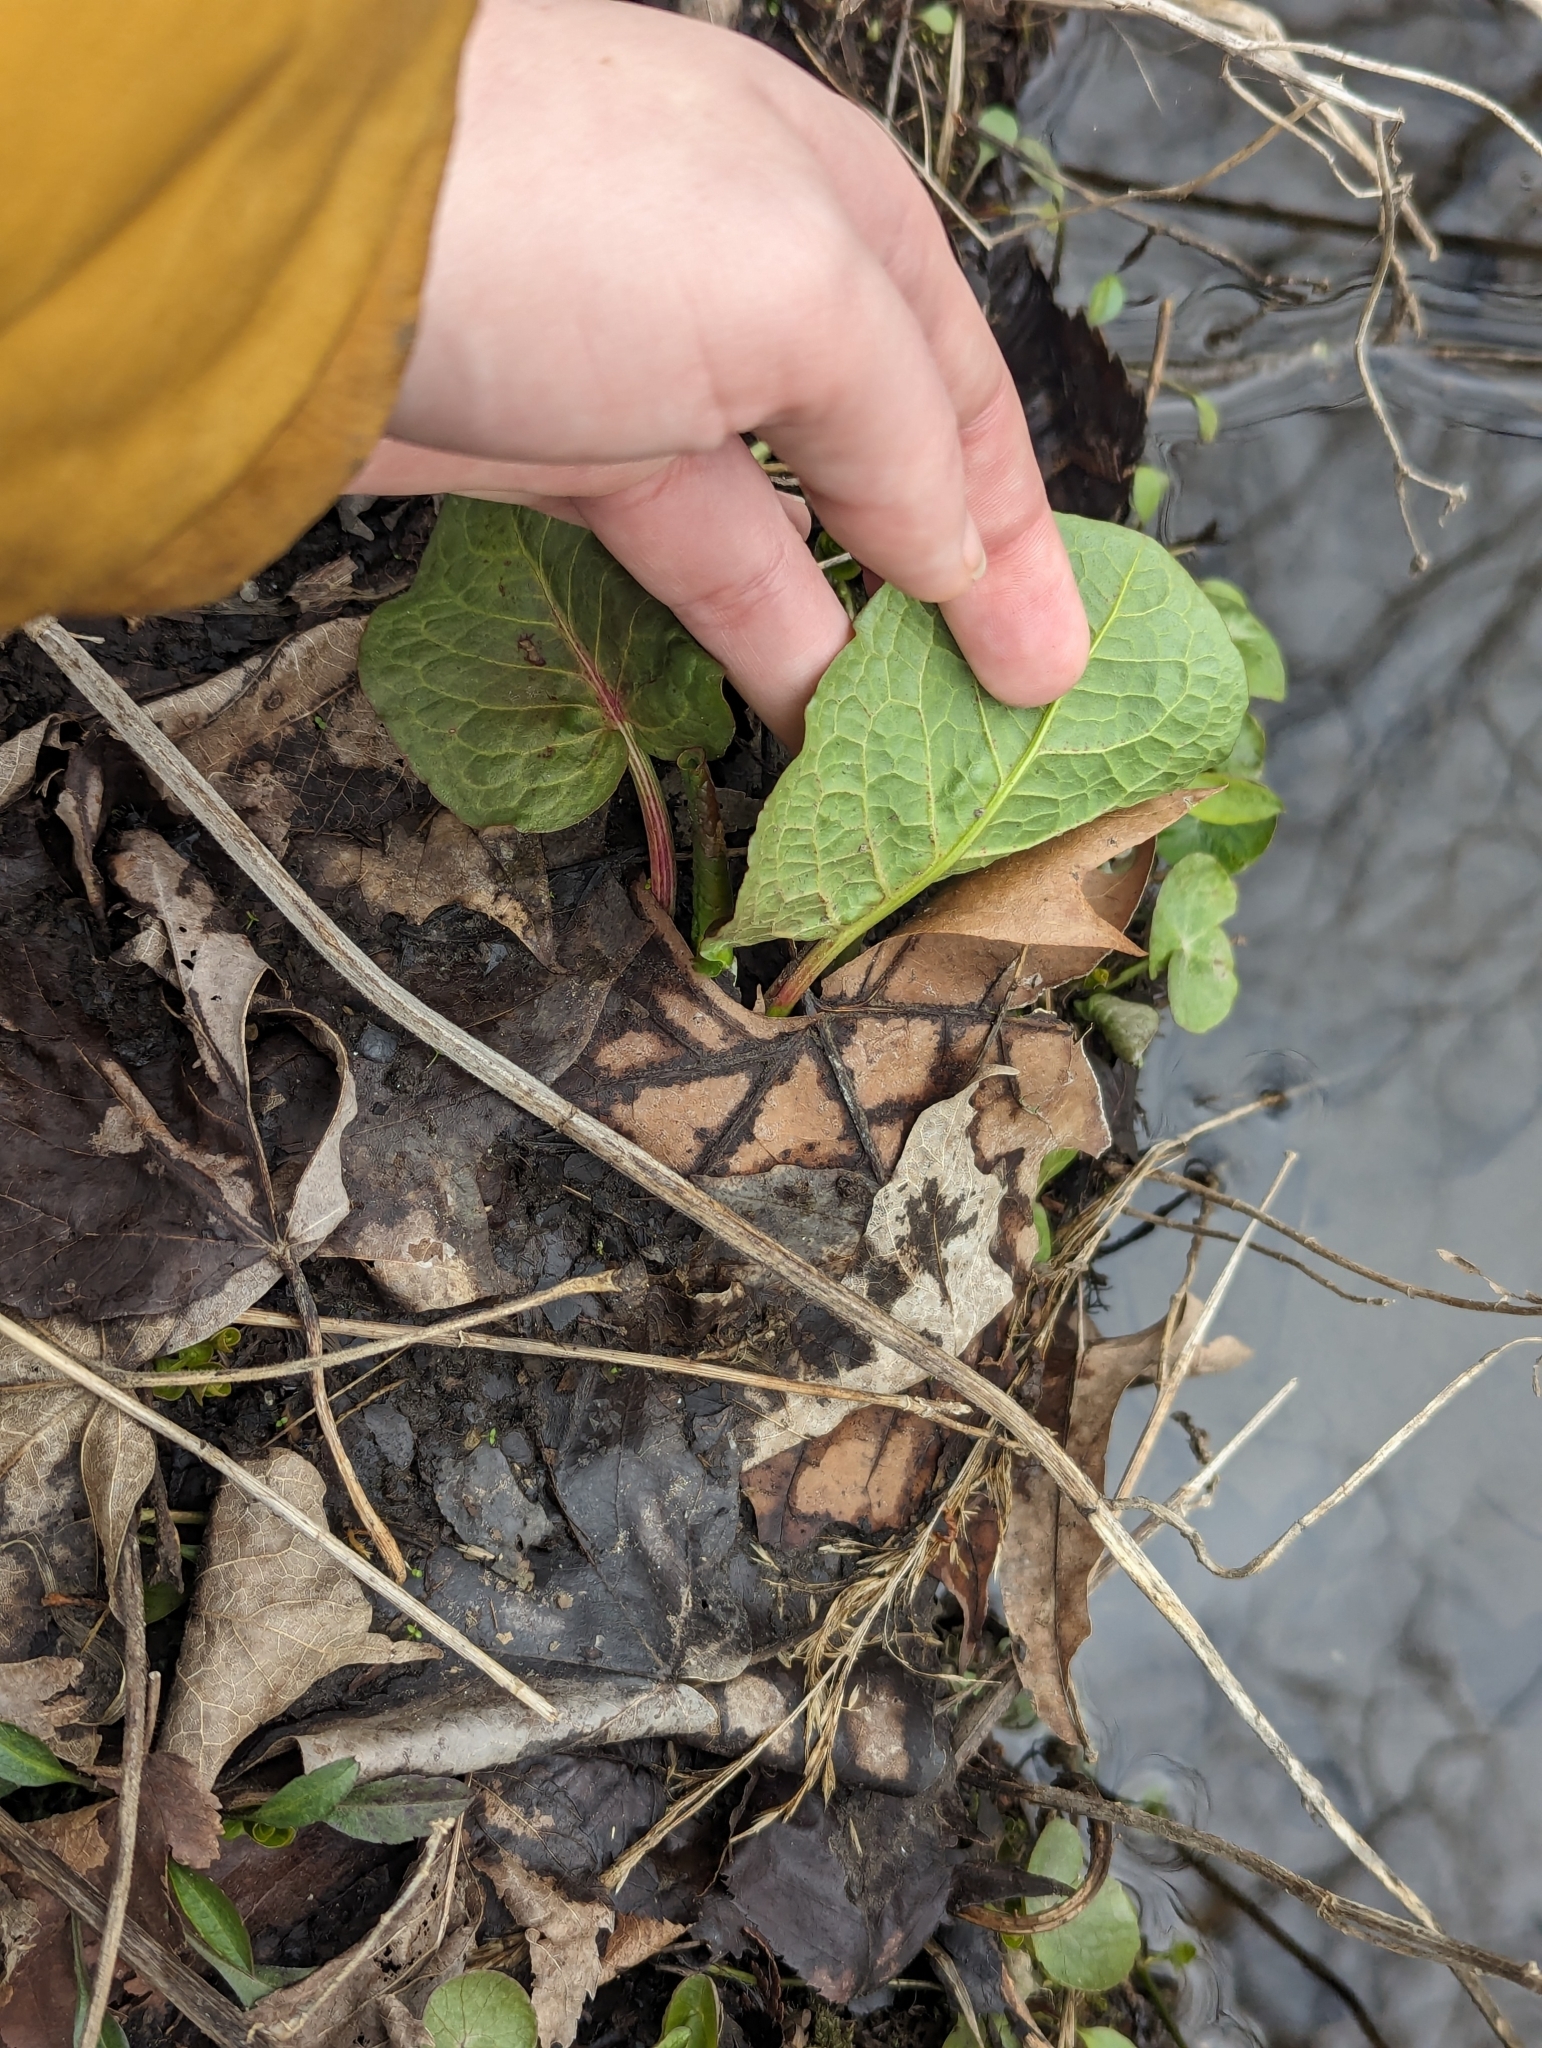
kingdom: Plantae
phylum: Tracheophyta
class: Magnoliopsida
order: Caryophyllales
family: Polygonaceae
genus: Rumex
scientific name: Rumex obtusifolius
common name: Bitter dock
